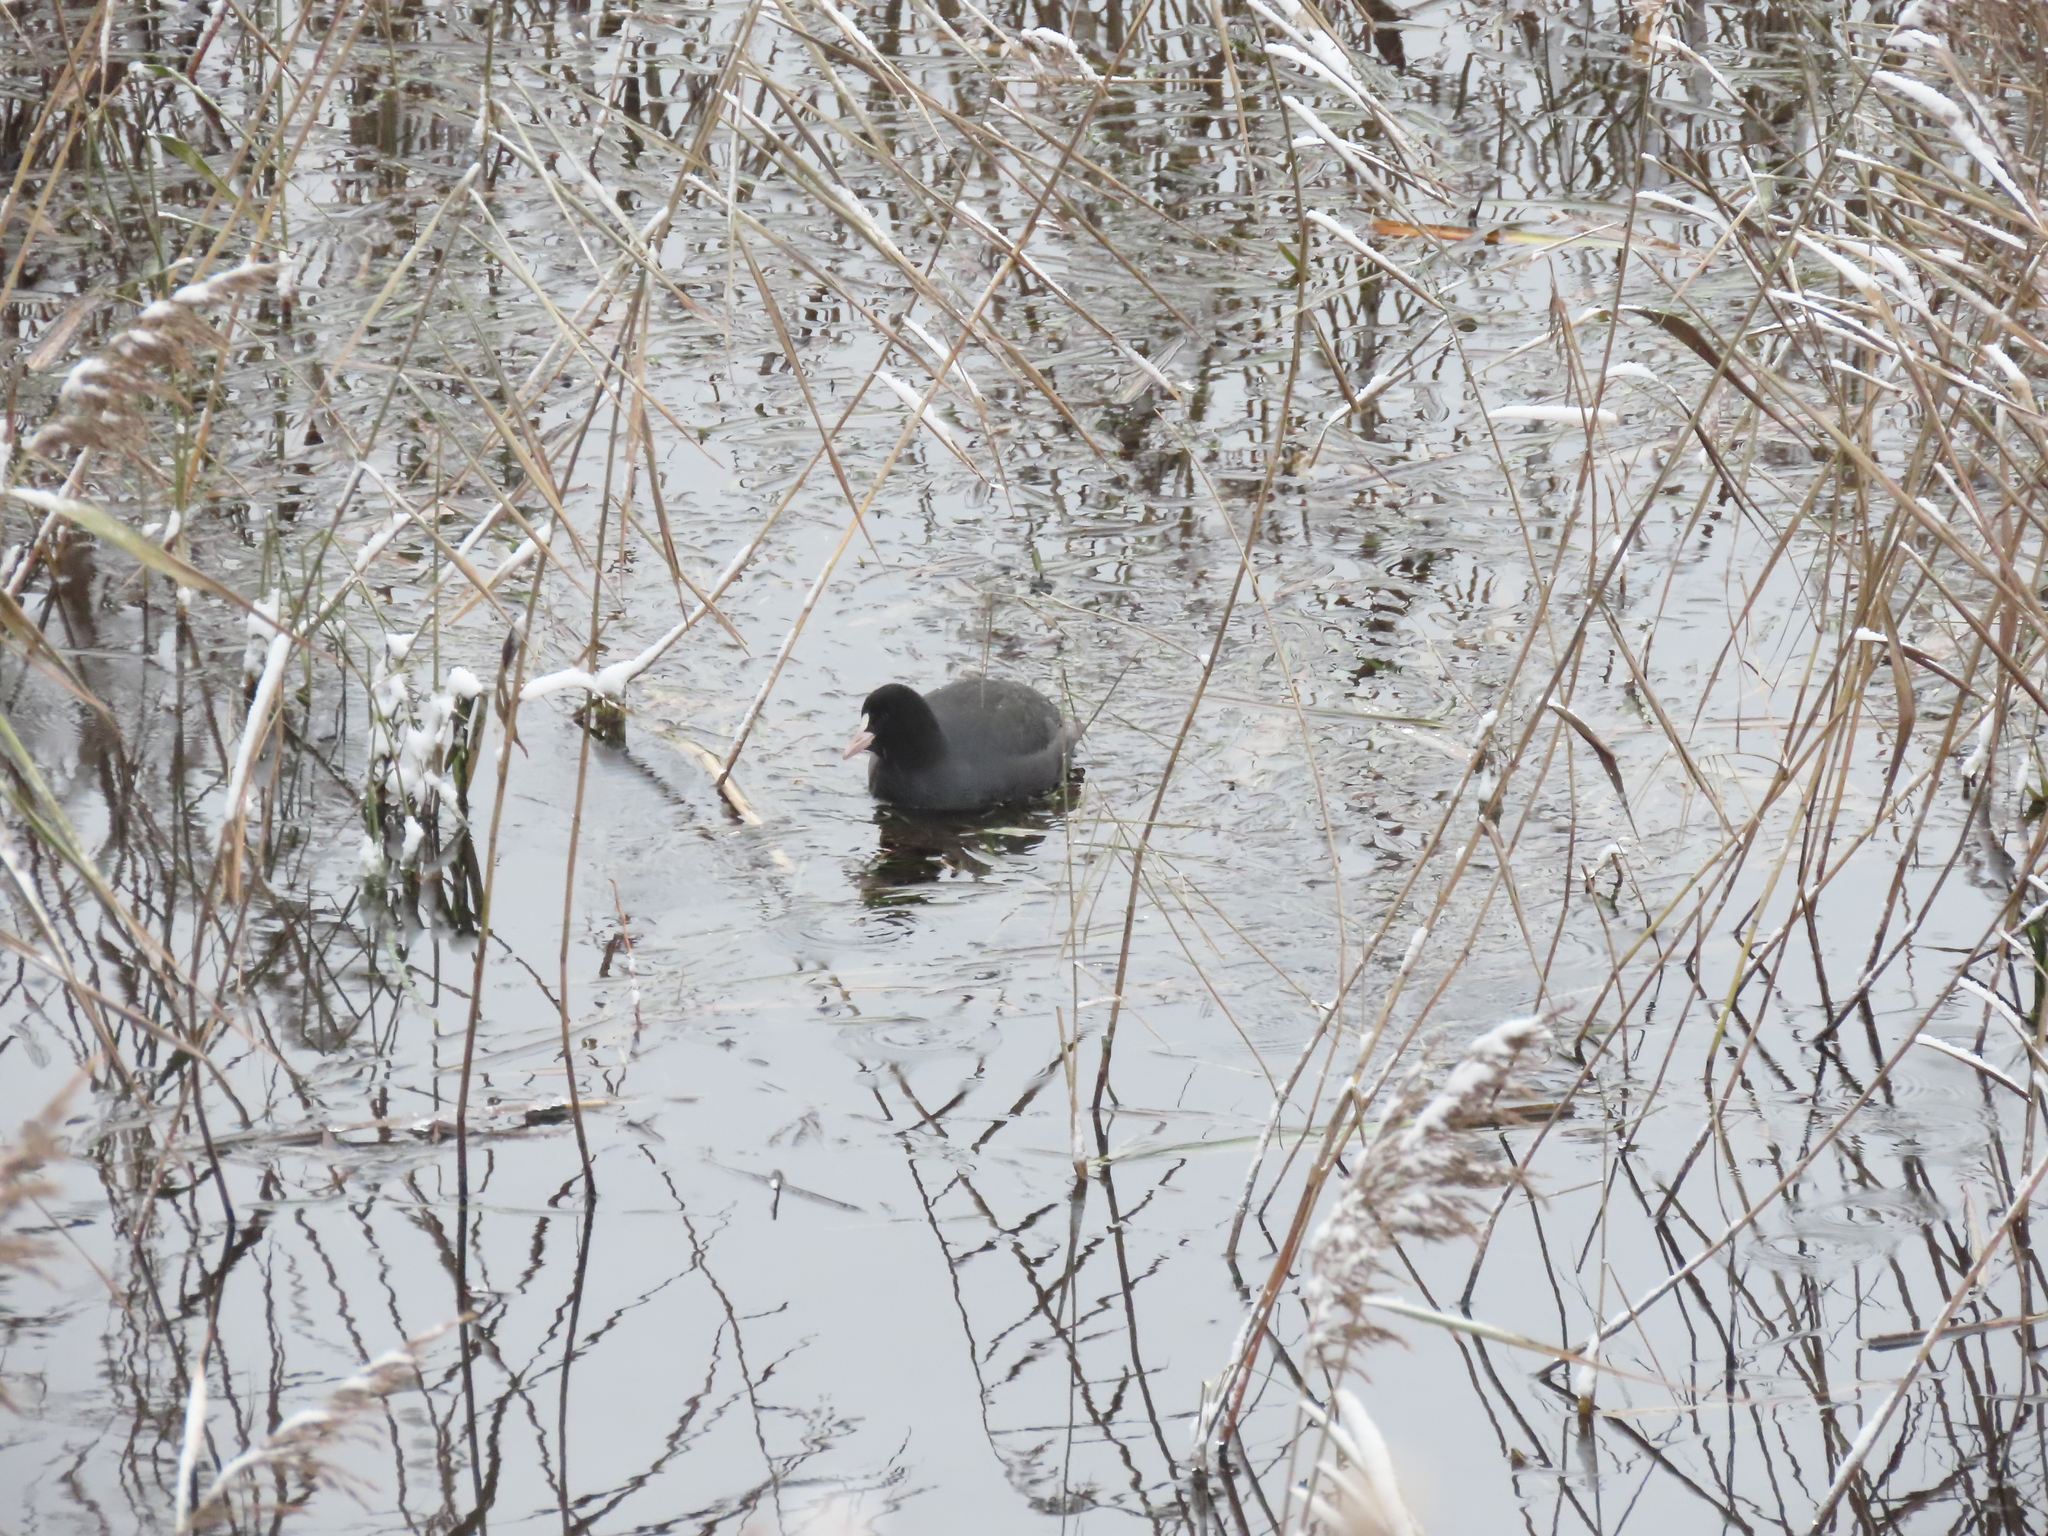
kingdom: Animalia
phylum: Chordata
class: Aves
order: Gruiformes
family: Rallidae
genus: Fulica
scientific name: Fulica atra
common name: Eurasian coot
